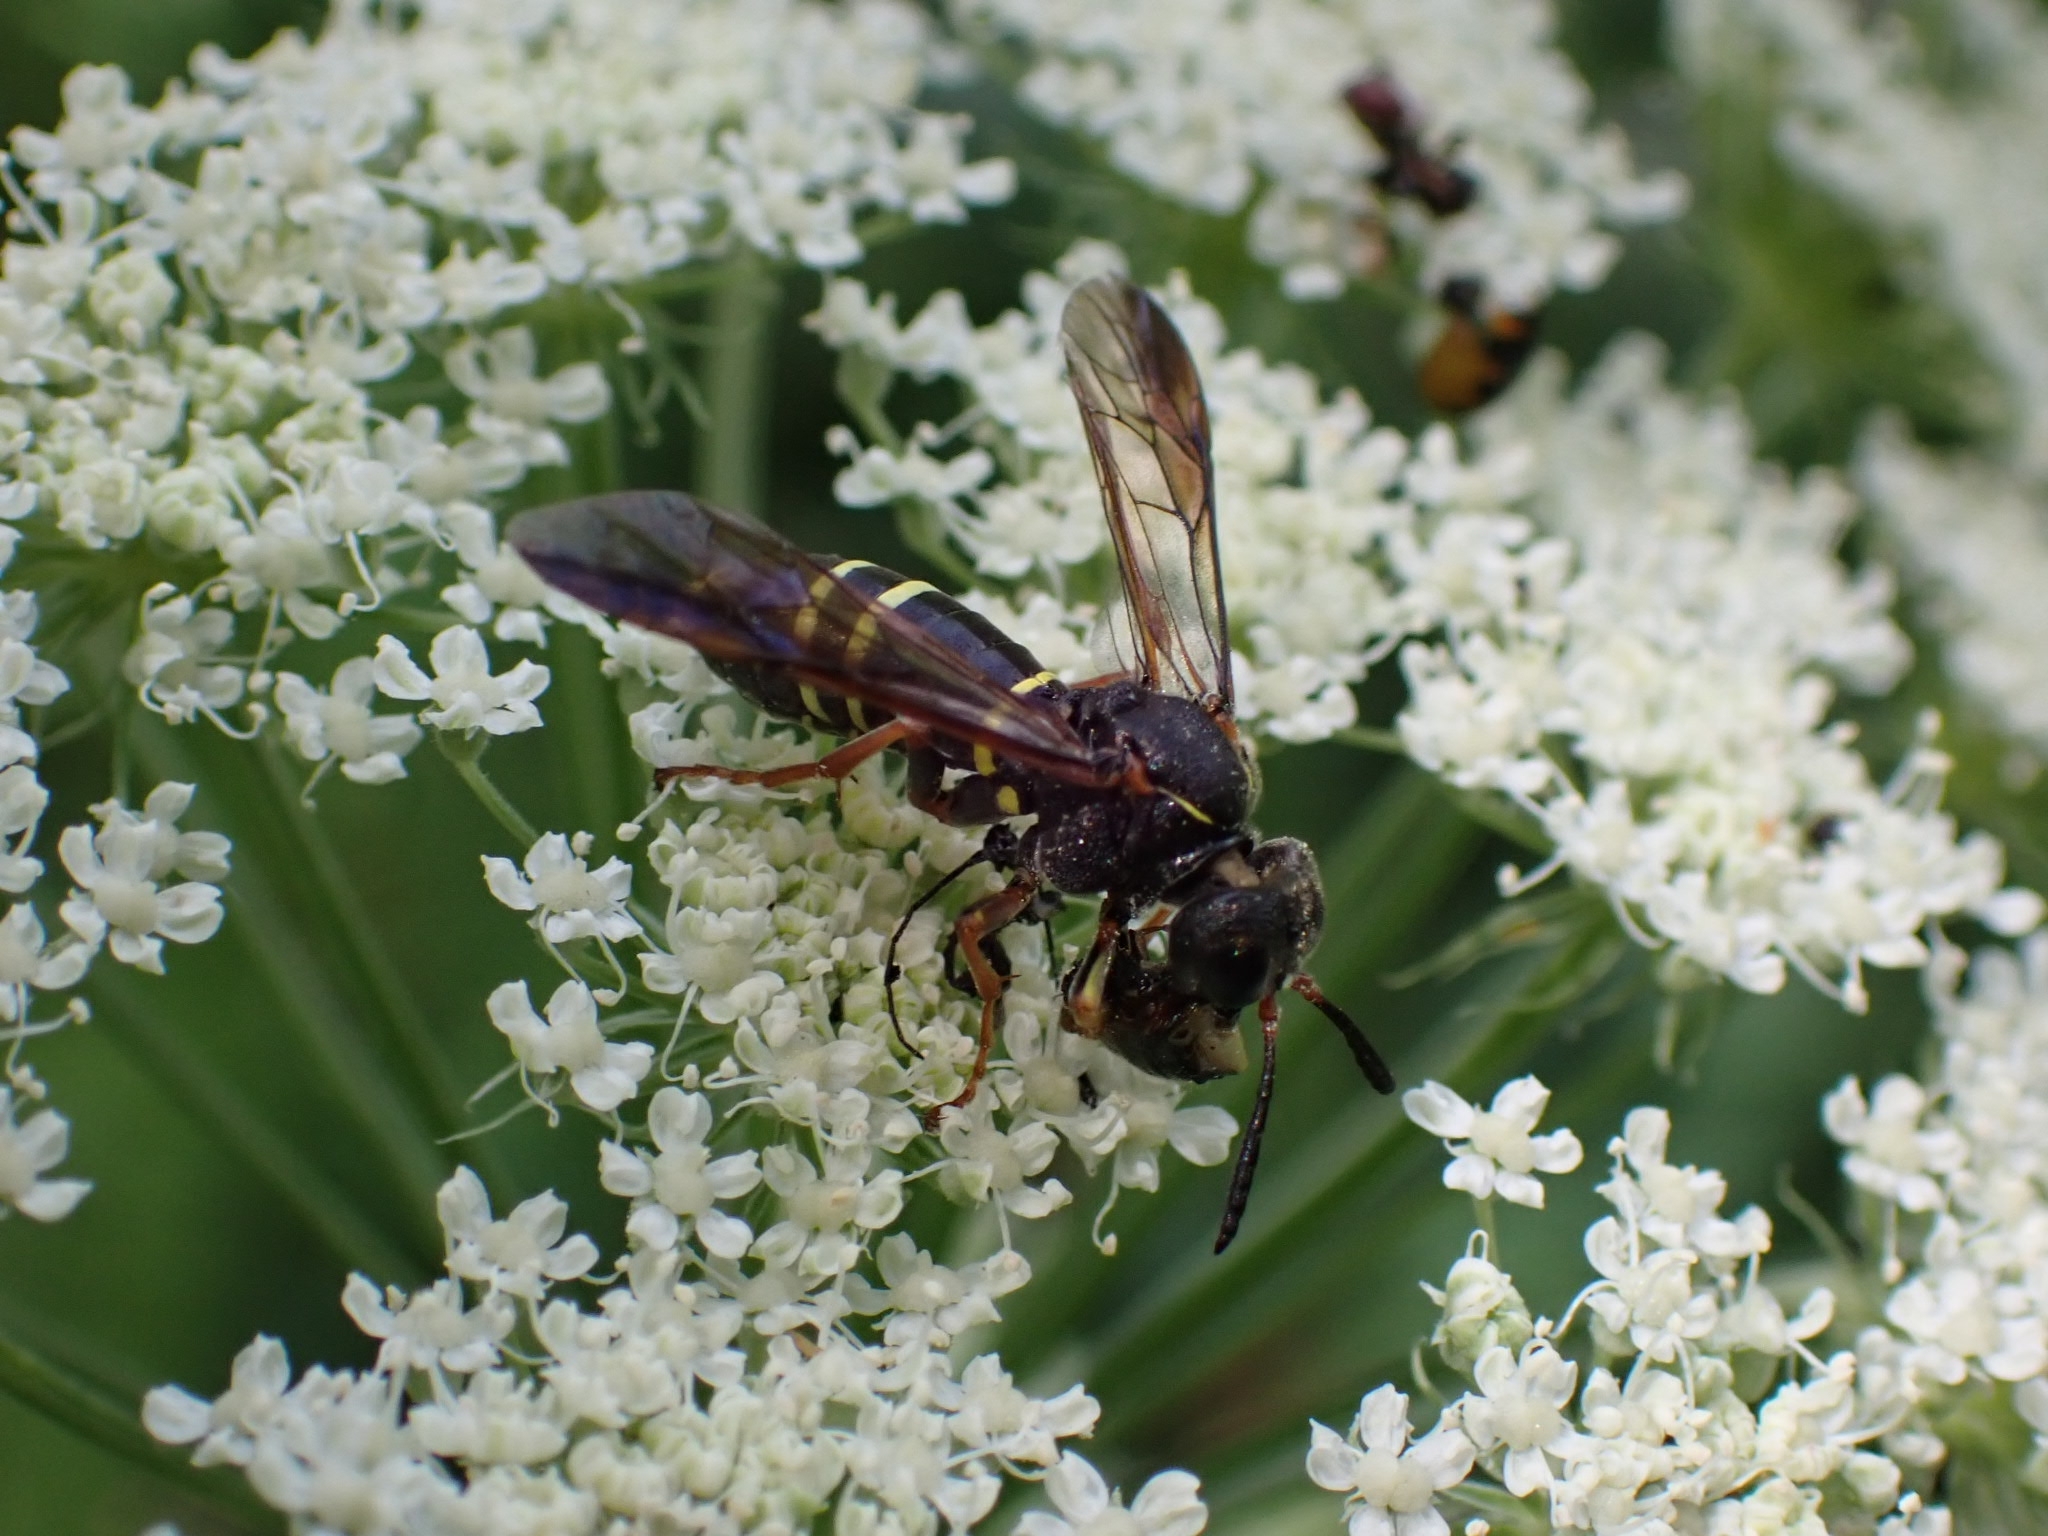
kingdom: Animalia
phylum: Arthropoda
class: Insecta
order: Hymenoptera
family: Tenthredinidae
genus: Tenthredo
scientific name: Tenthredo vespa
